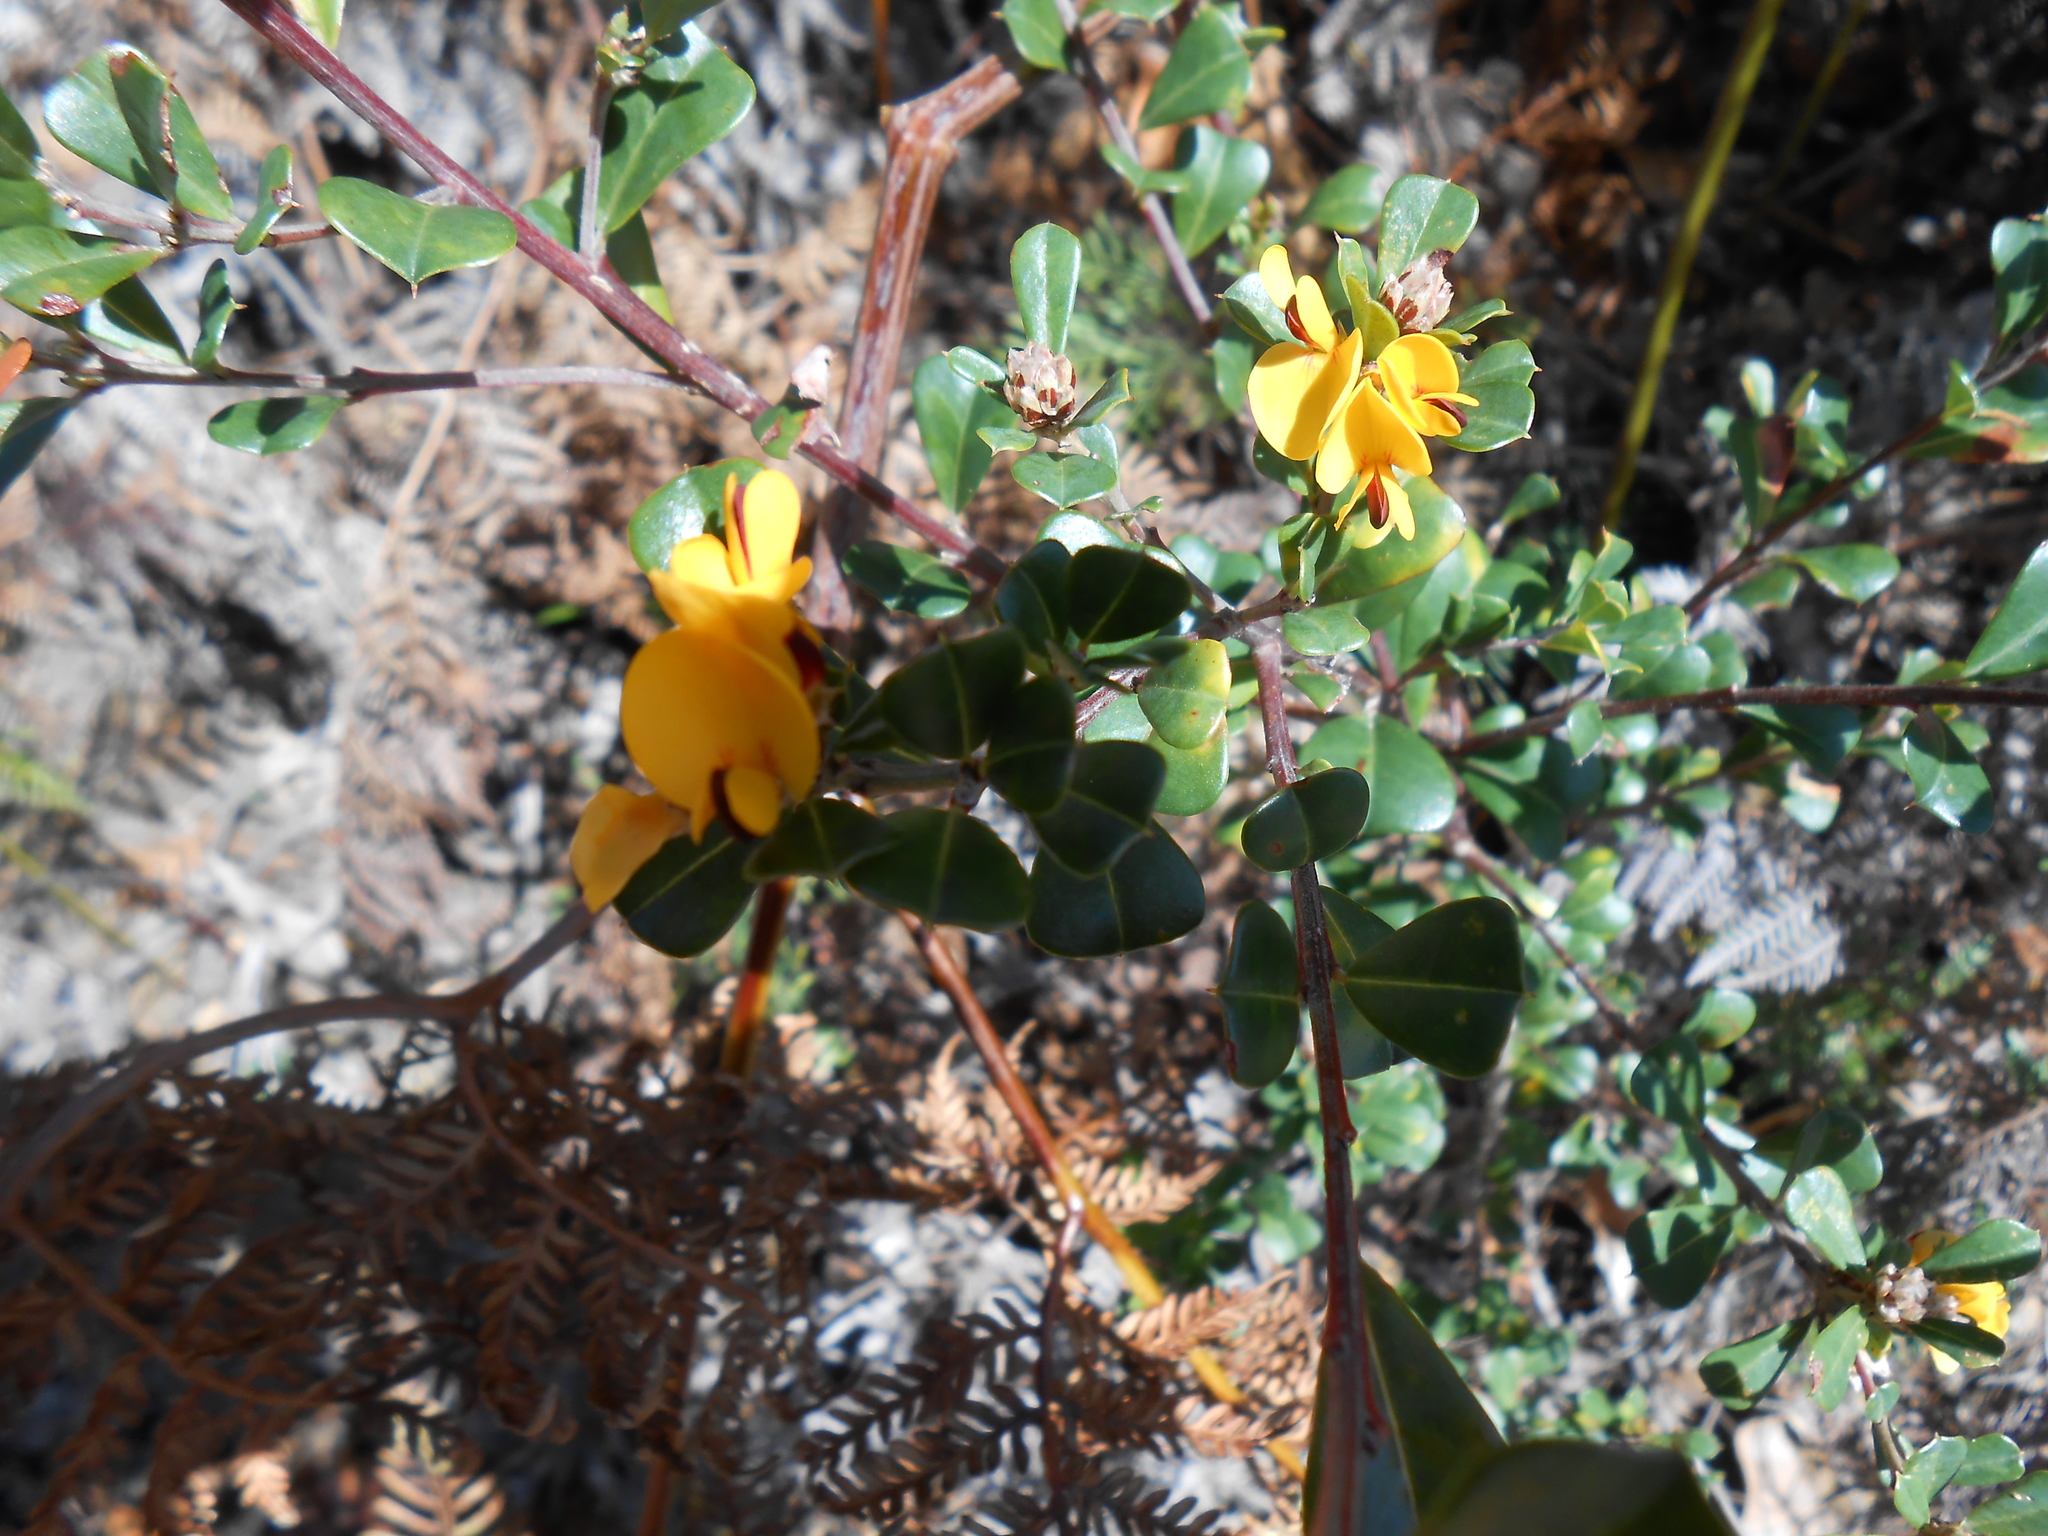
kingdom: Plantae
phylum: Tracheophyta
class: Magnoliopsida
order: Fabales
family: Fabaceae
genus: Pultenaea
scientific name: Pultenaea daphnoides
